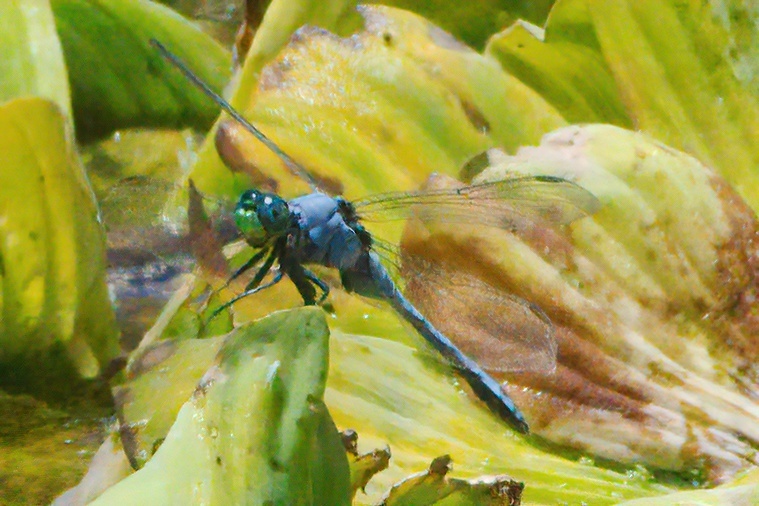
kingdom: Animalia
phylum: Arthropoda
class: Insecta
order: Odonata
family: Libellulidae
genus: Erythemis
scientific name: Erythemis simplicicollis
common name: Eastern pondhawk
